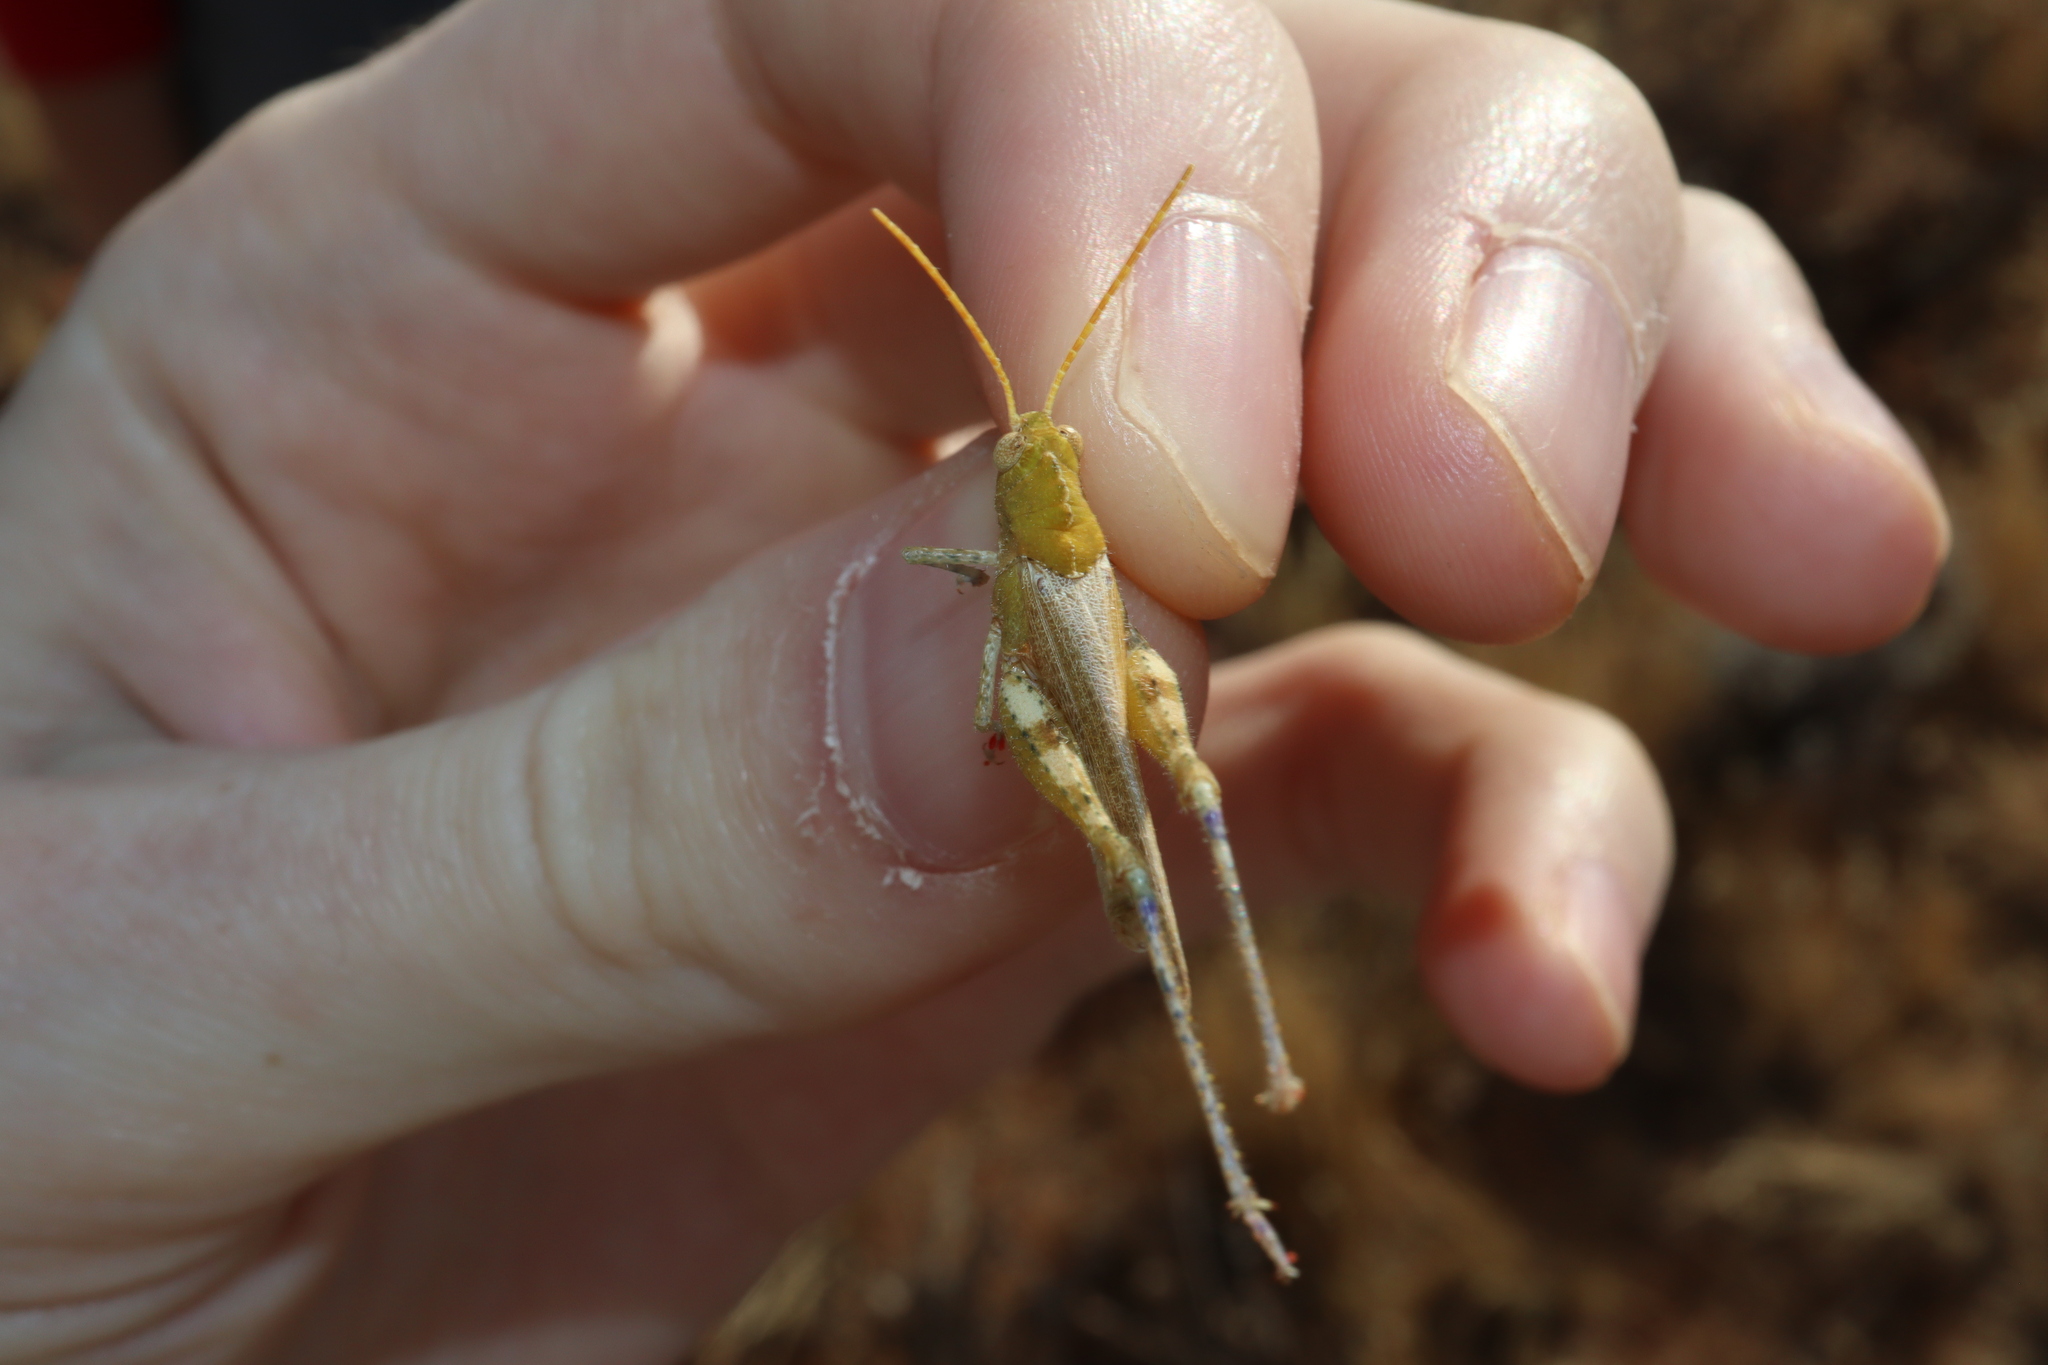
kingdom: Animalia
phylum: Arthropoda
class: Insecta
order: Orthoptera
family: Acrididae
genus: Ecphantus
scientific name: Ecphantus quadrilobus
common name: Crested tooth grinder
